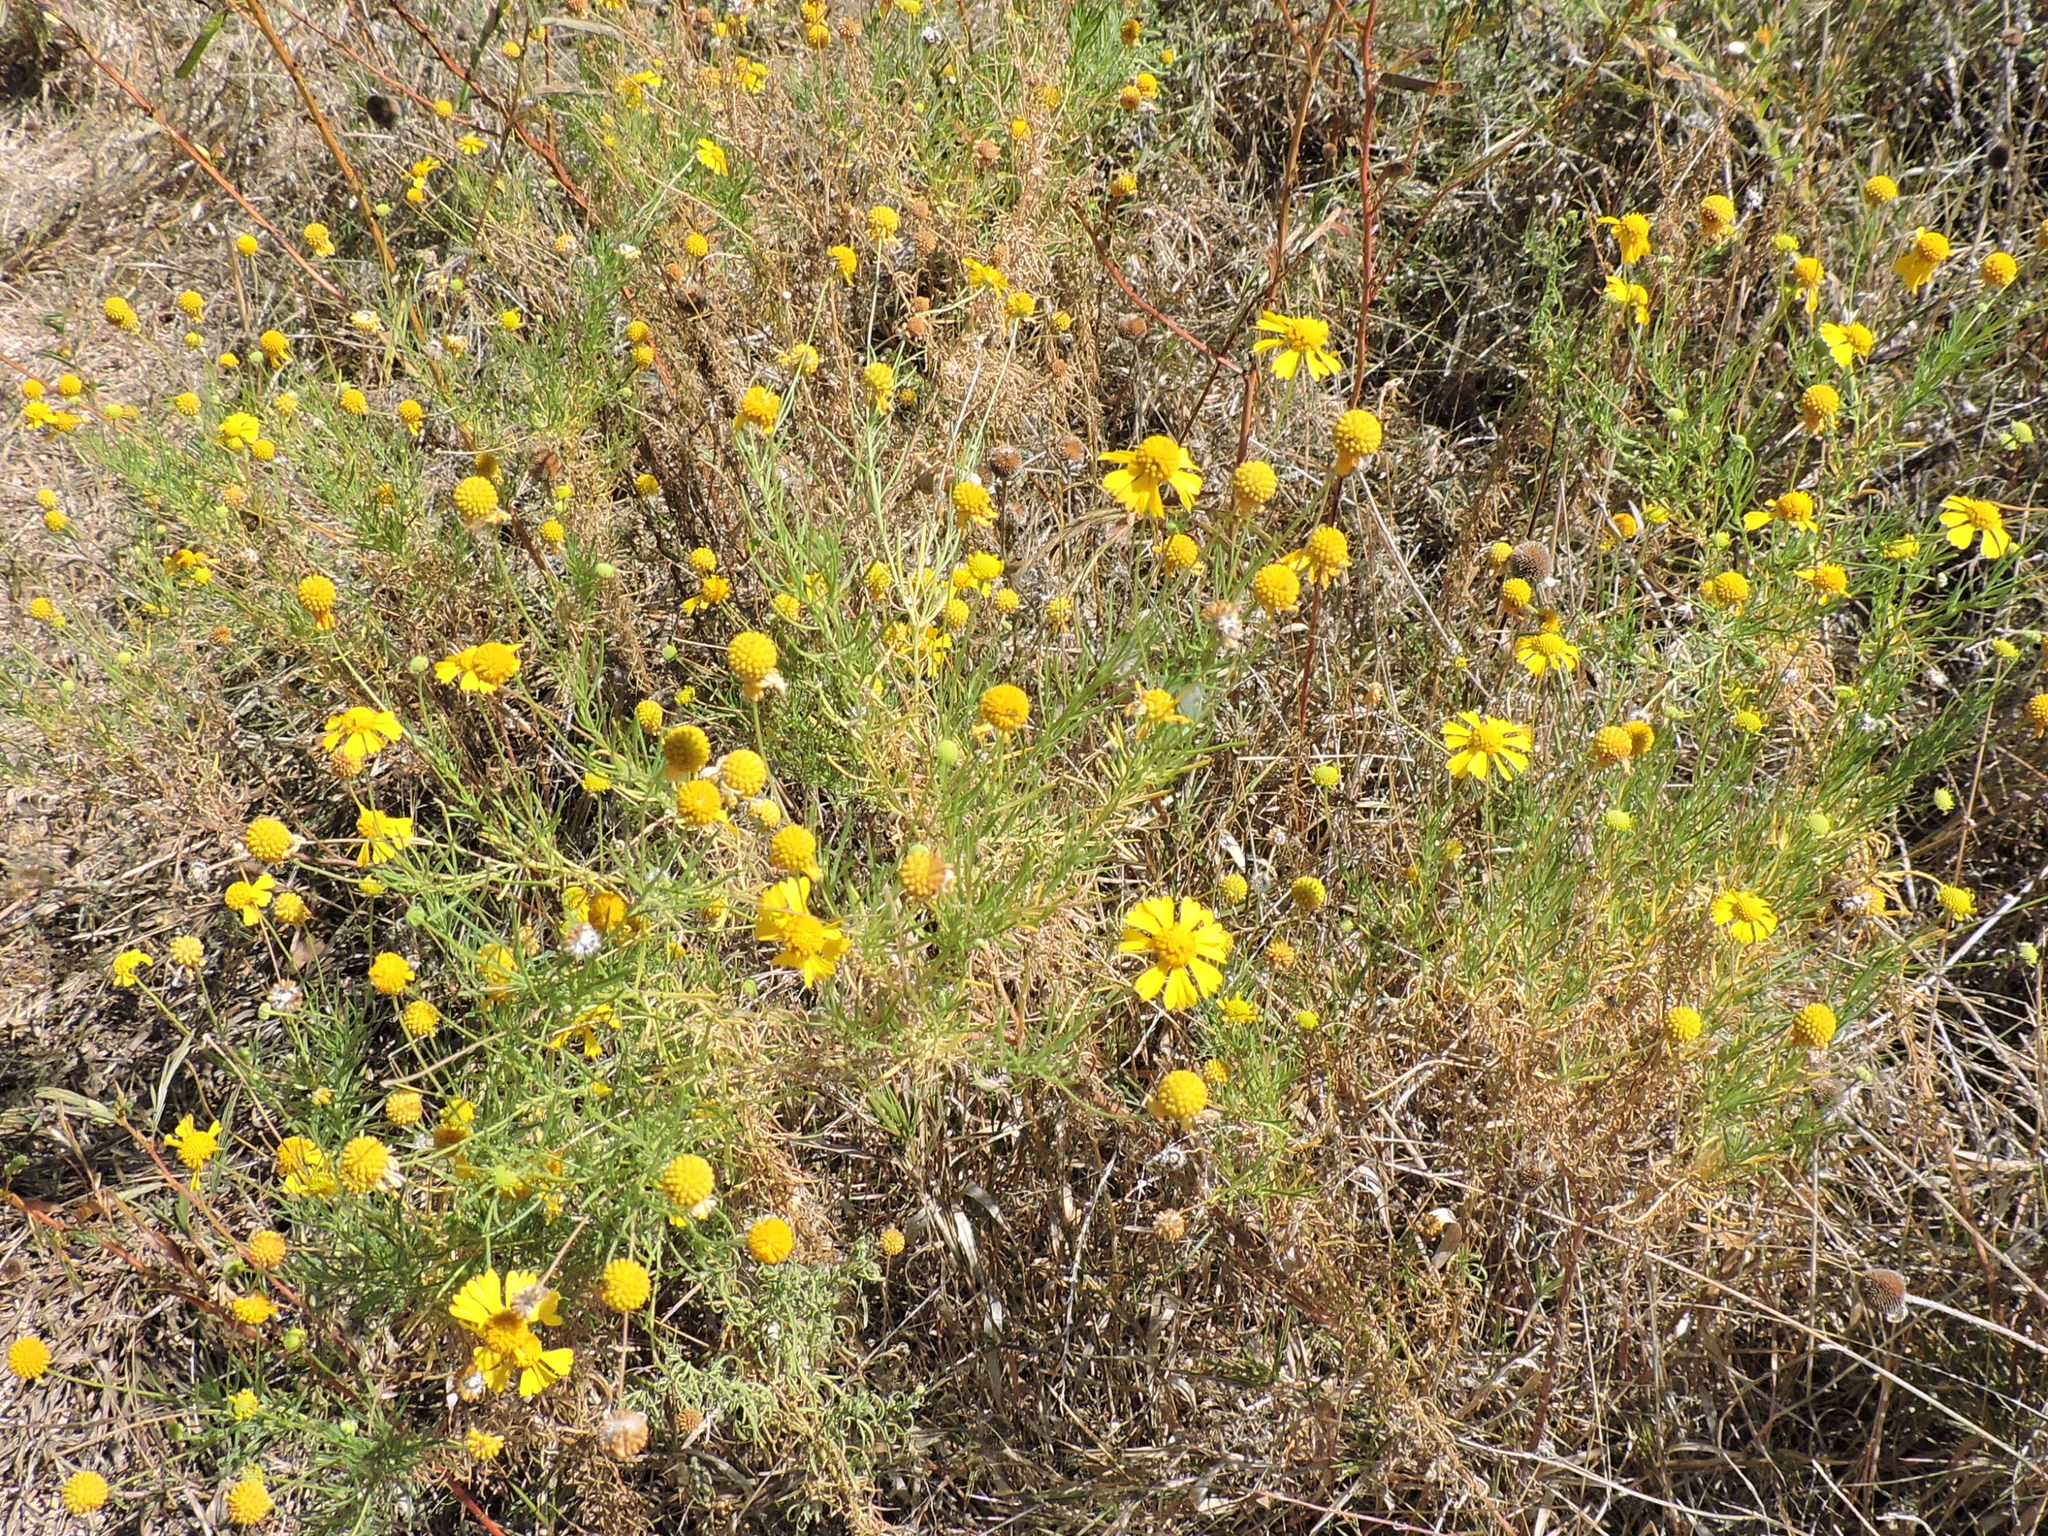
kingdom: Plantae
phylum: Tracheophyta
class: Magnoliopsida
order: Asterales
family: Asteraceae
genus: Helenium
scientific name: Helenium amarum
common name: Bitter sneezeweed
